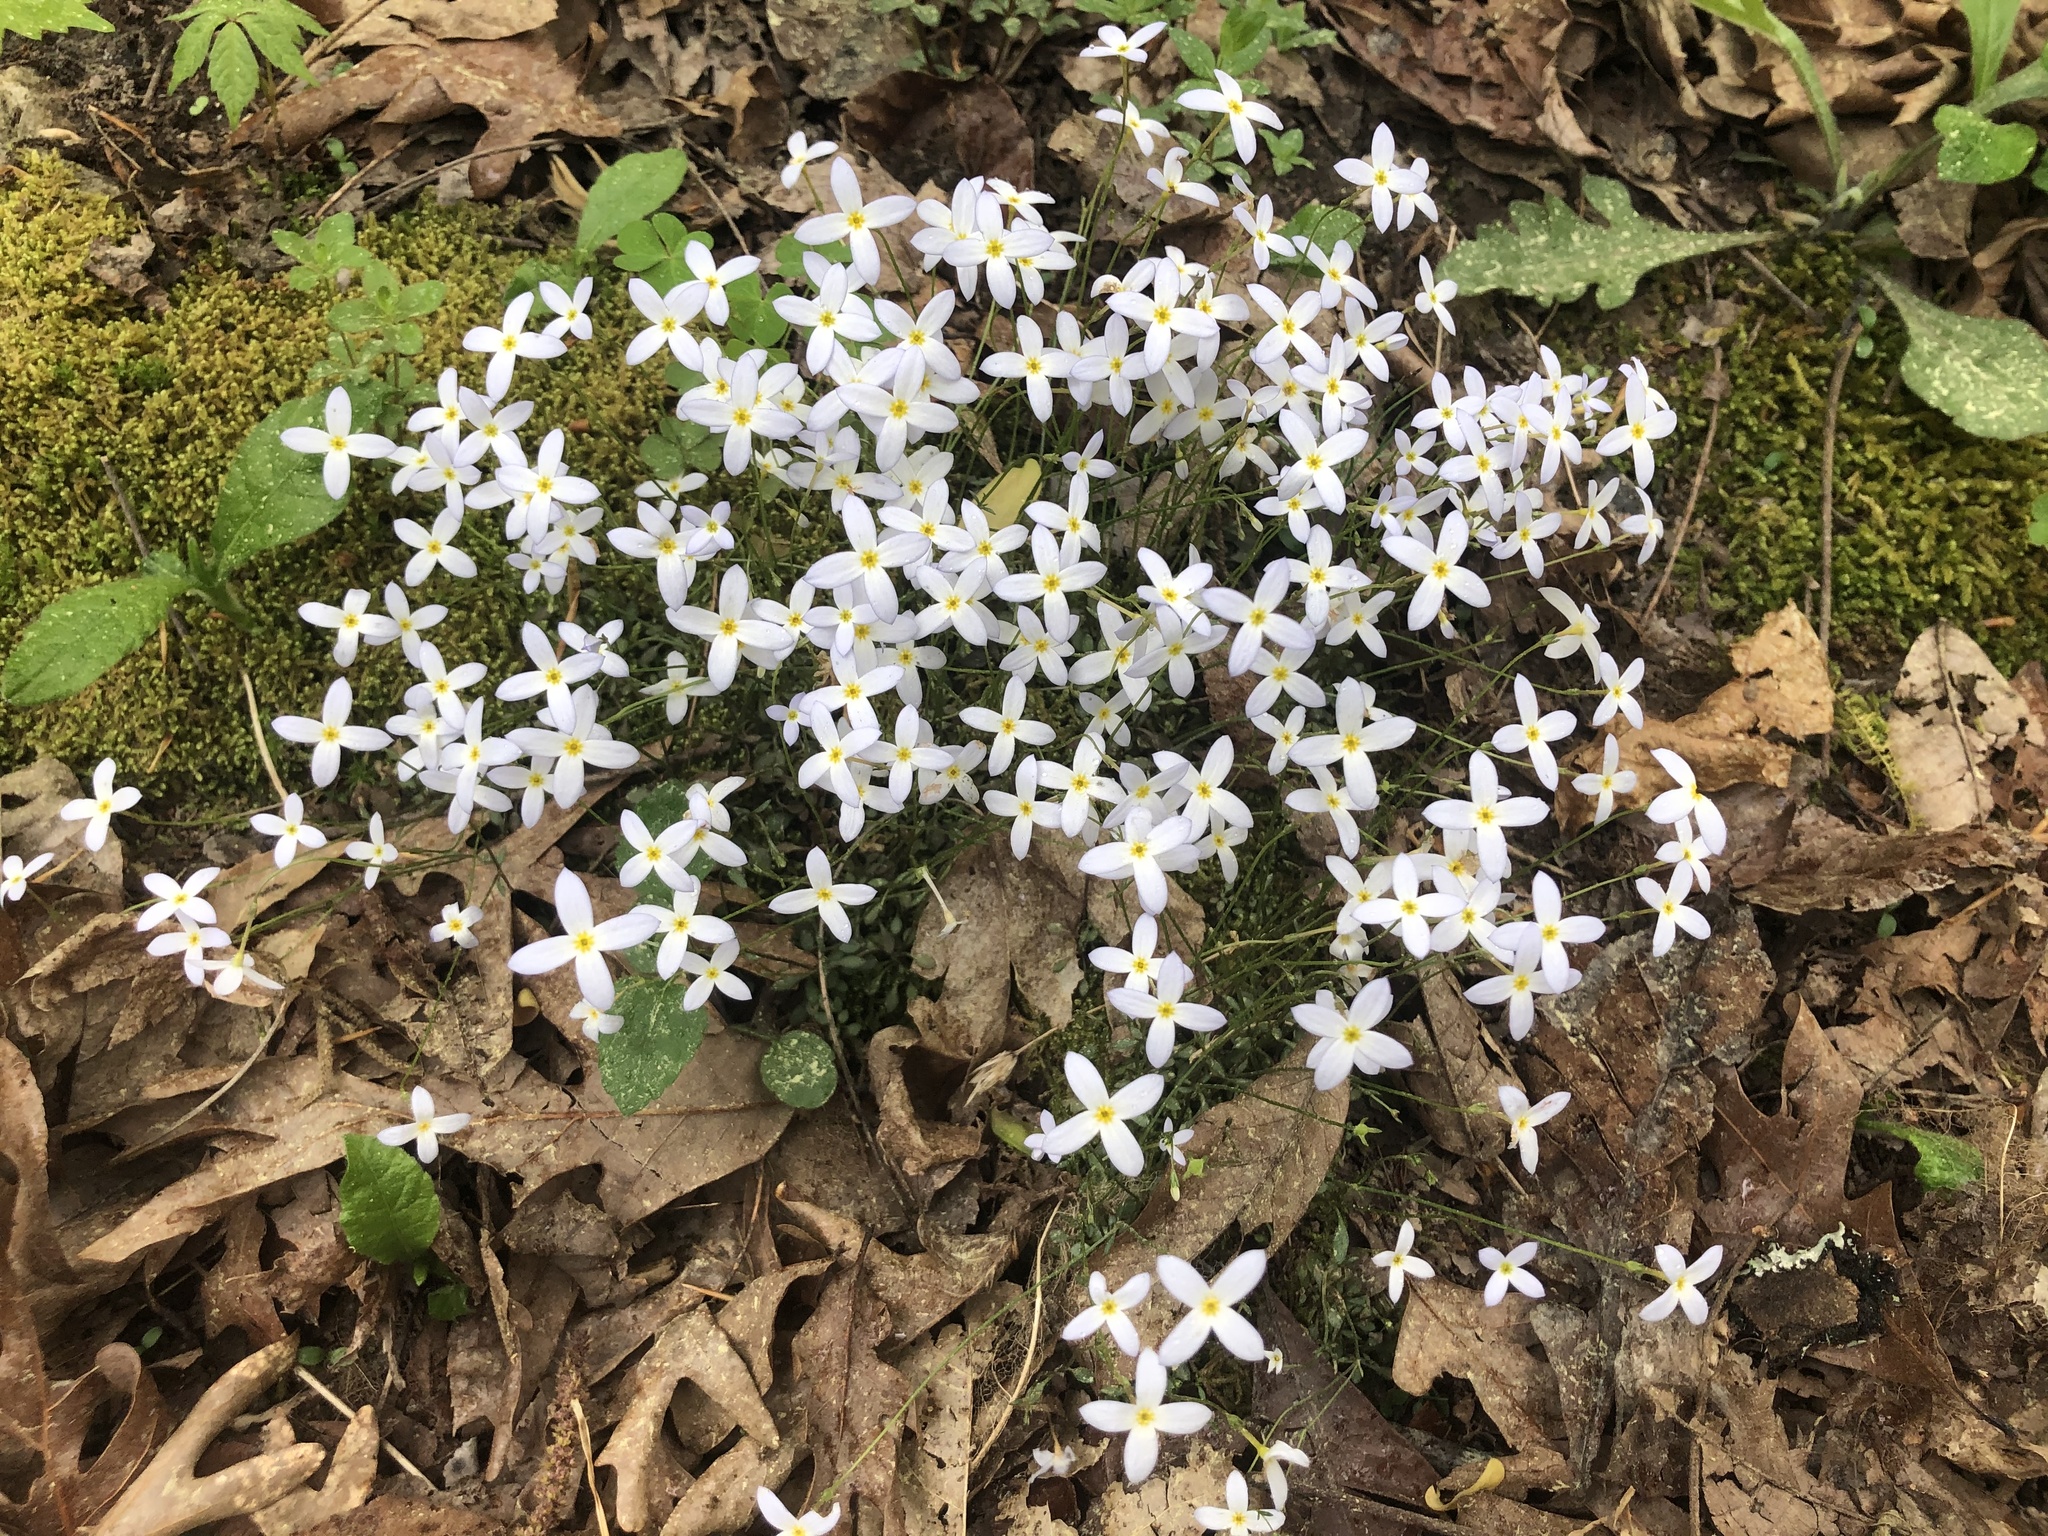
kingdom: Plantae
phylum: Tracheophyta
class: Magnoliopsida
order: Gentianales
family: Rubiaceae
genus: Houstonia
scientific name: Houstonia caerulea
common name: Bluets
